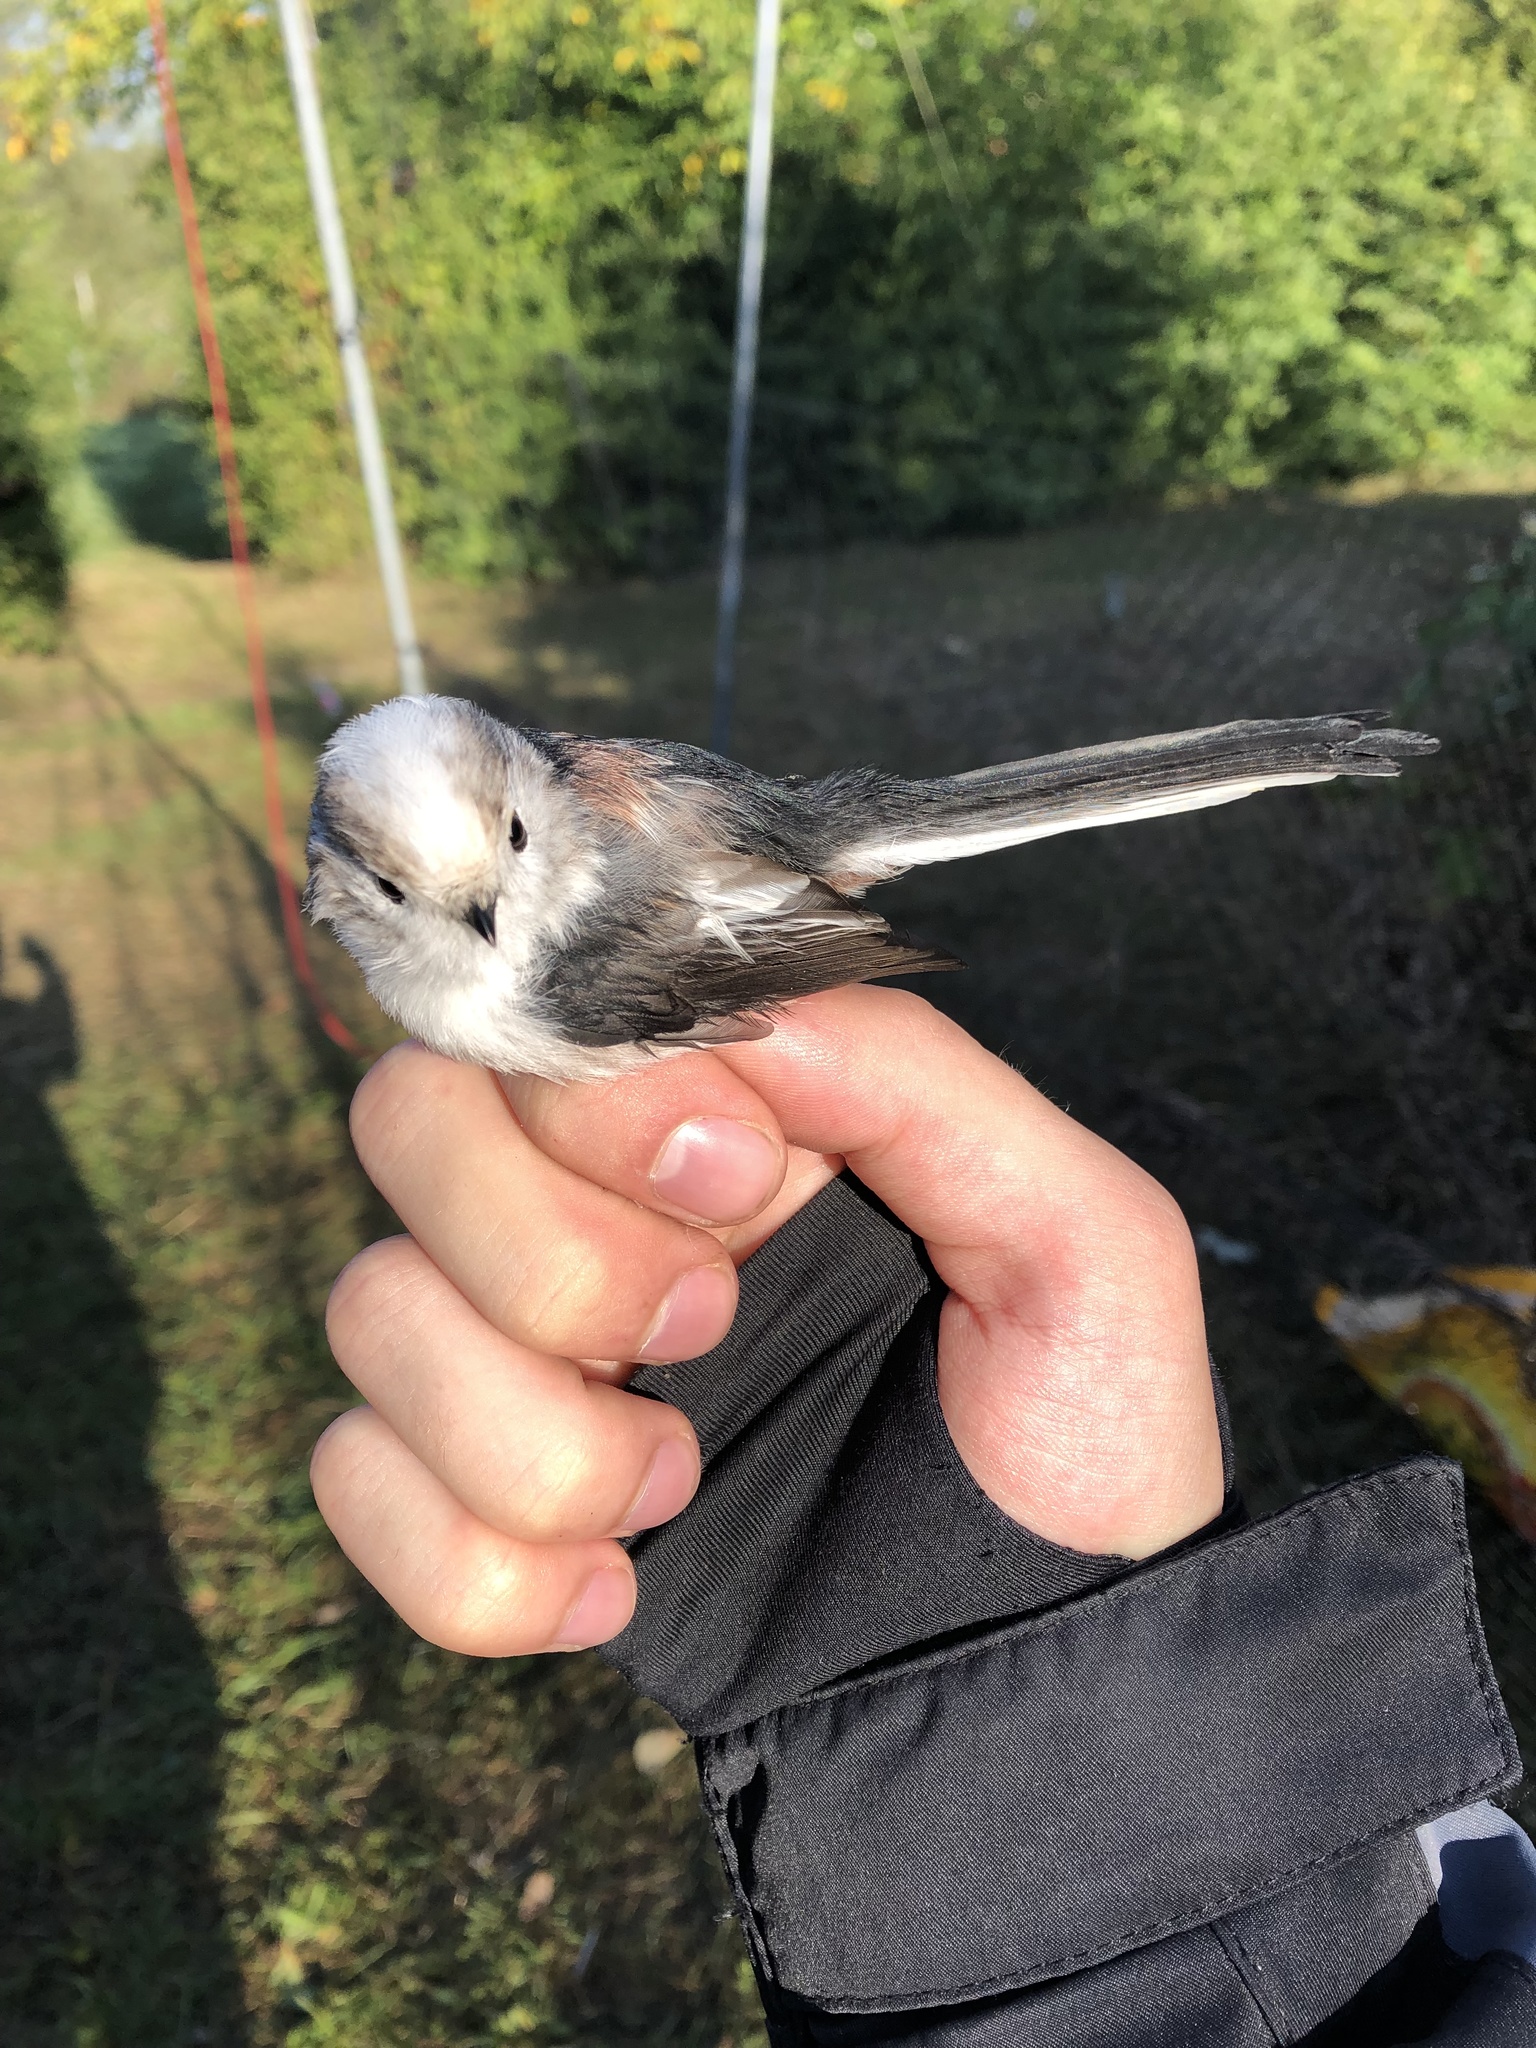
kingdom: Animalia
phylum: Chordata
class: Aves
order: Passeriformes
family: Aegithalidae
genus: Aegithalos
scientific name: Aegithalos caudatus
